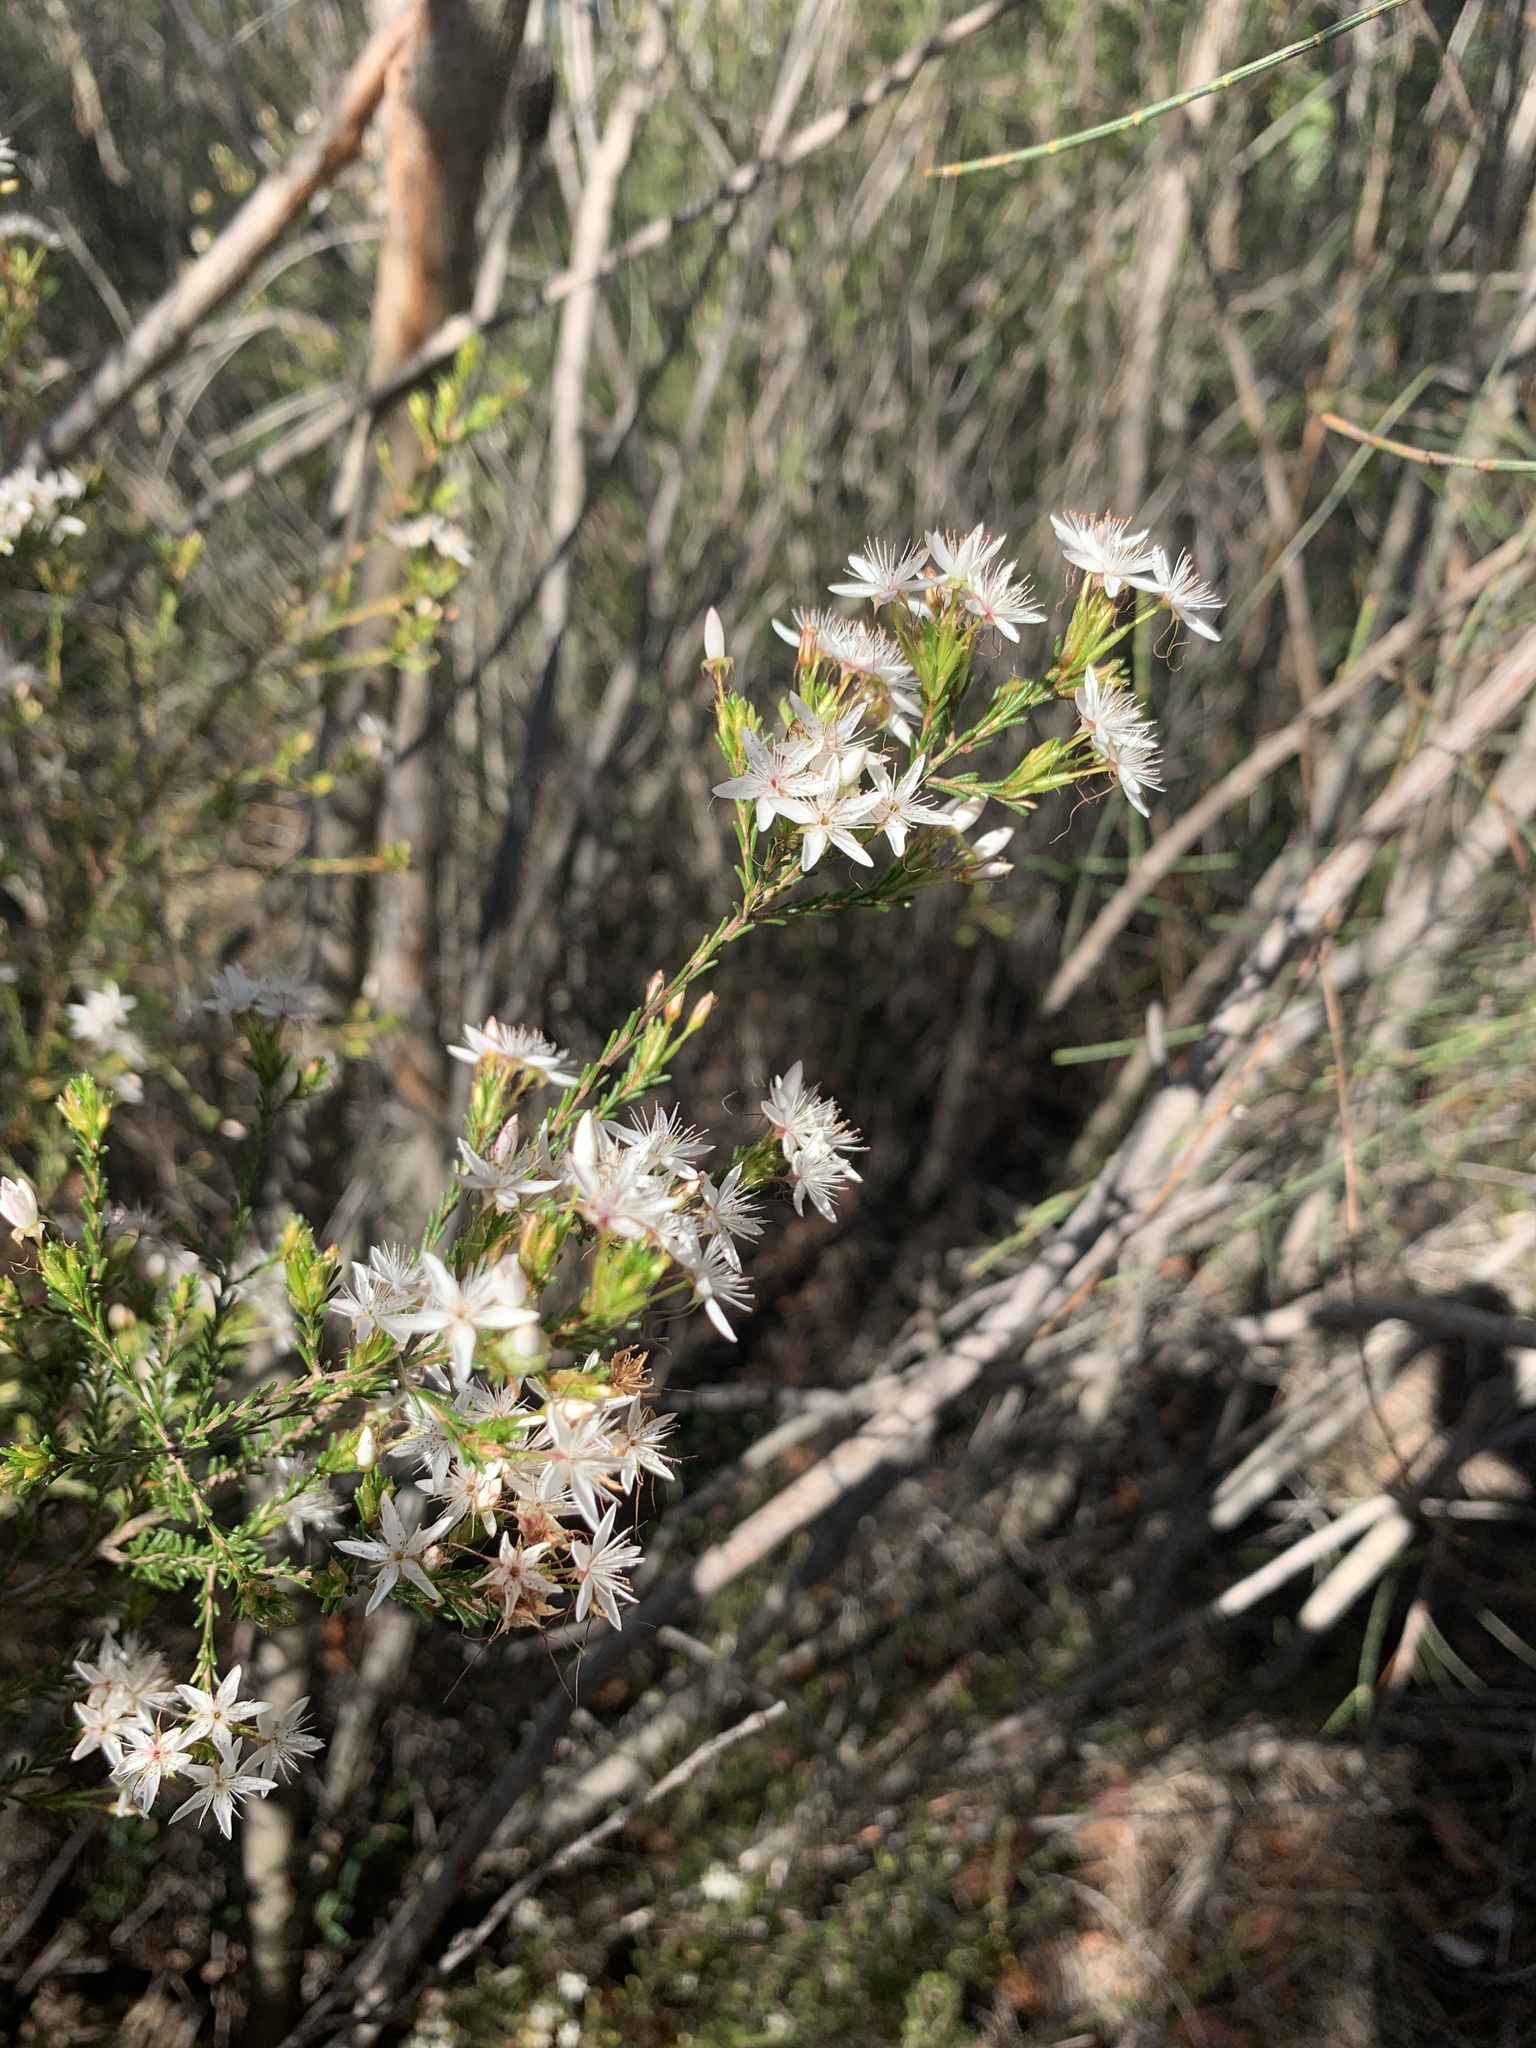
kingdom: Plantae
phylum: Tracheophyta
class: Magnoliopsida
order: Myrtales
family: Myrtaceae
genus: Calytrix
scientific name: Calytrix tetragona
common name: Common fringe myrtle
